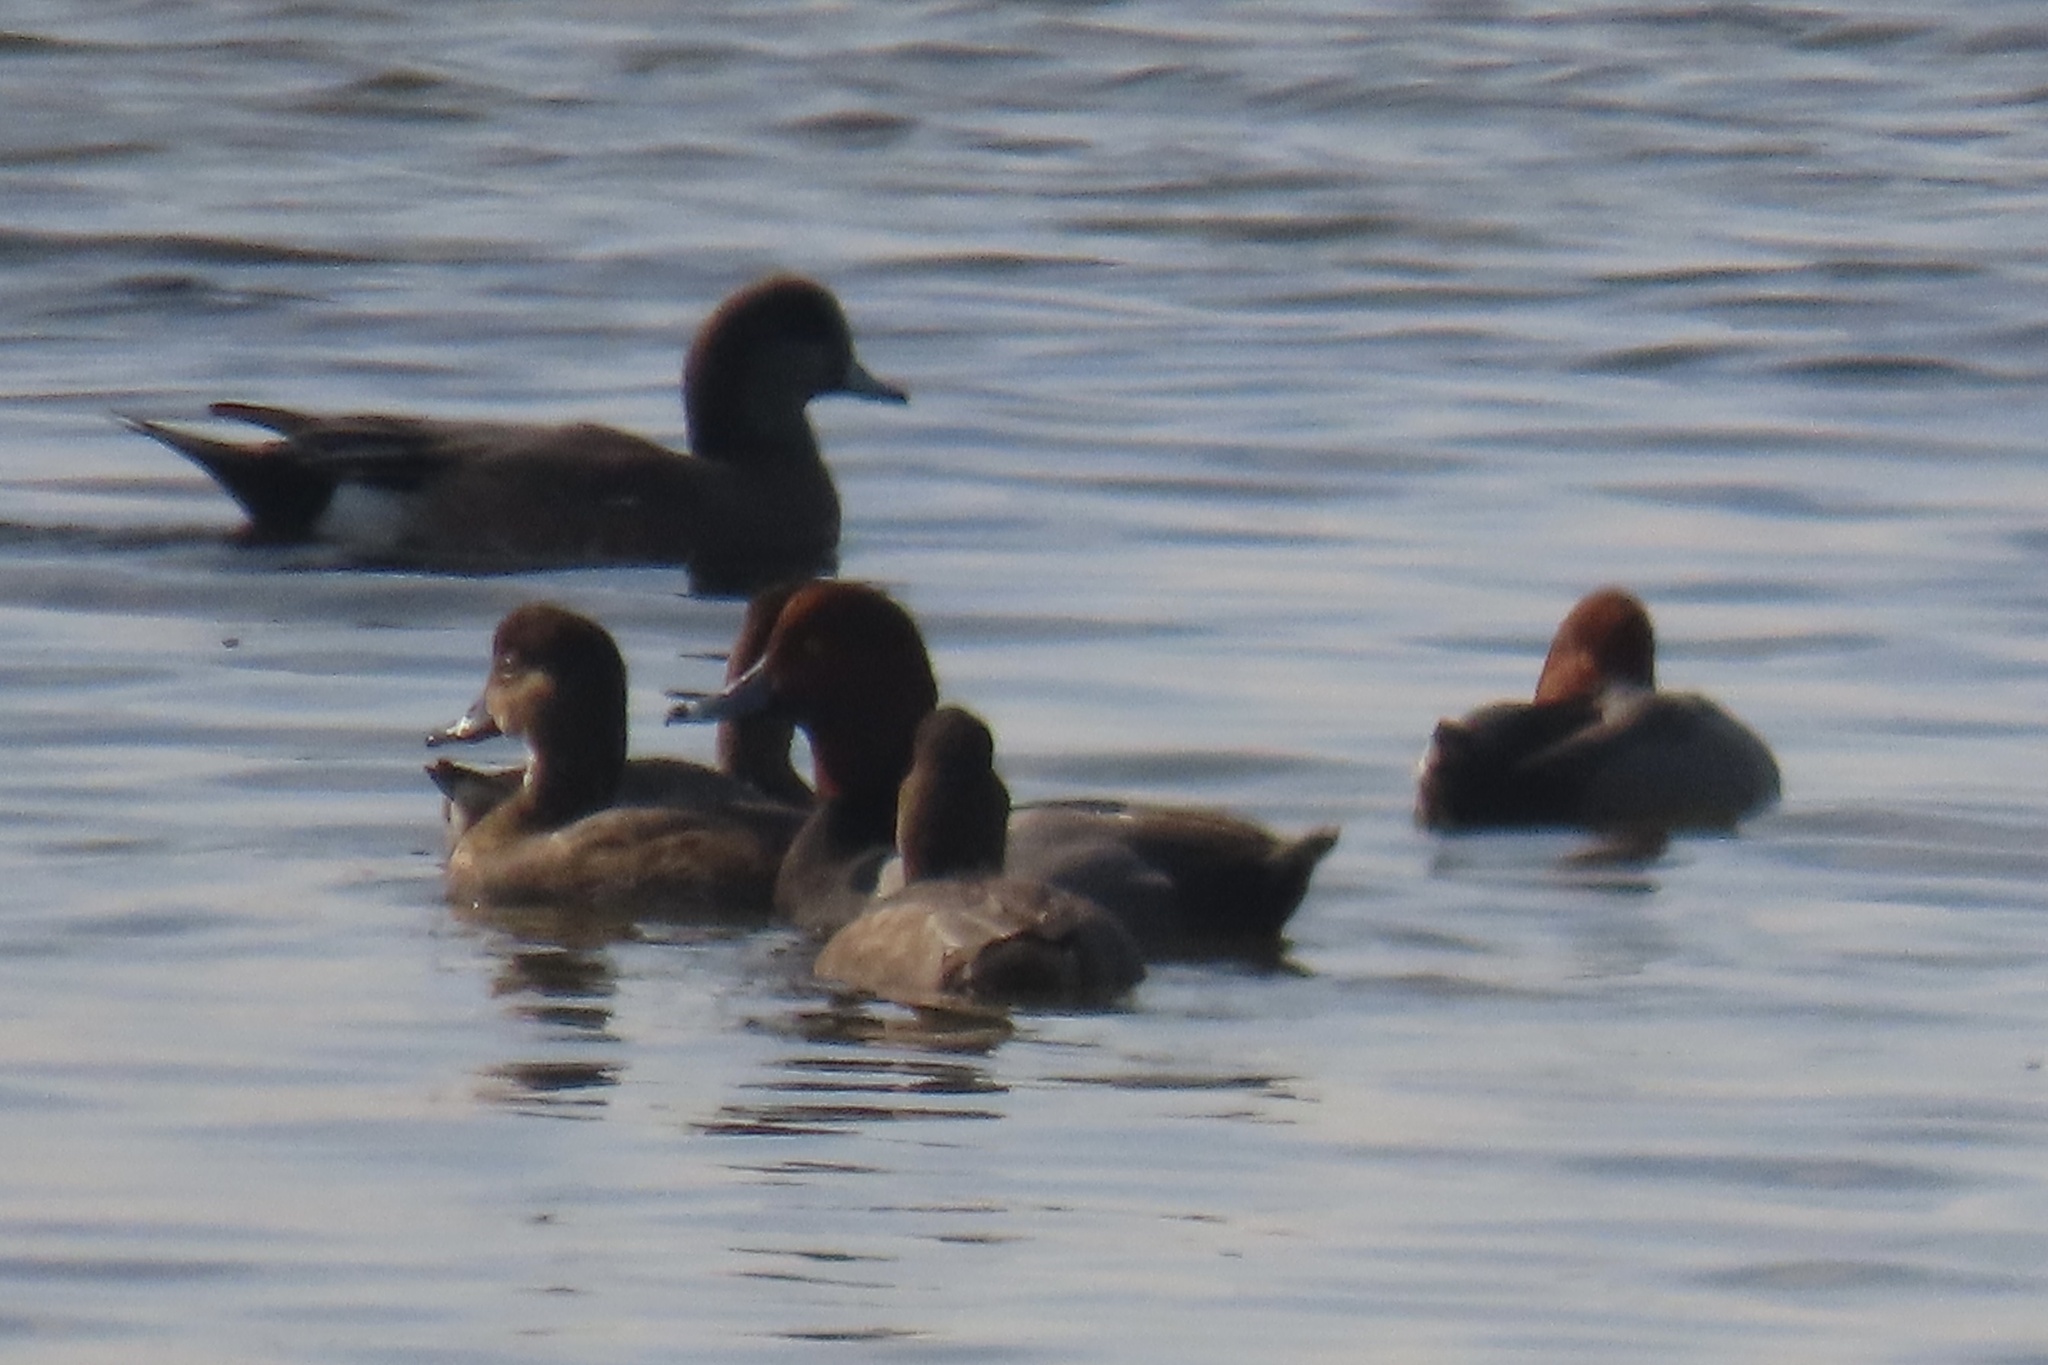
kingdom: Animalia
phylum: Chordata
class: Aves
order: Anseriformes
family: Anatidae
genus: Aythya
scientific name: Aythya americana
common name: Redhead
